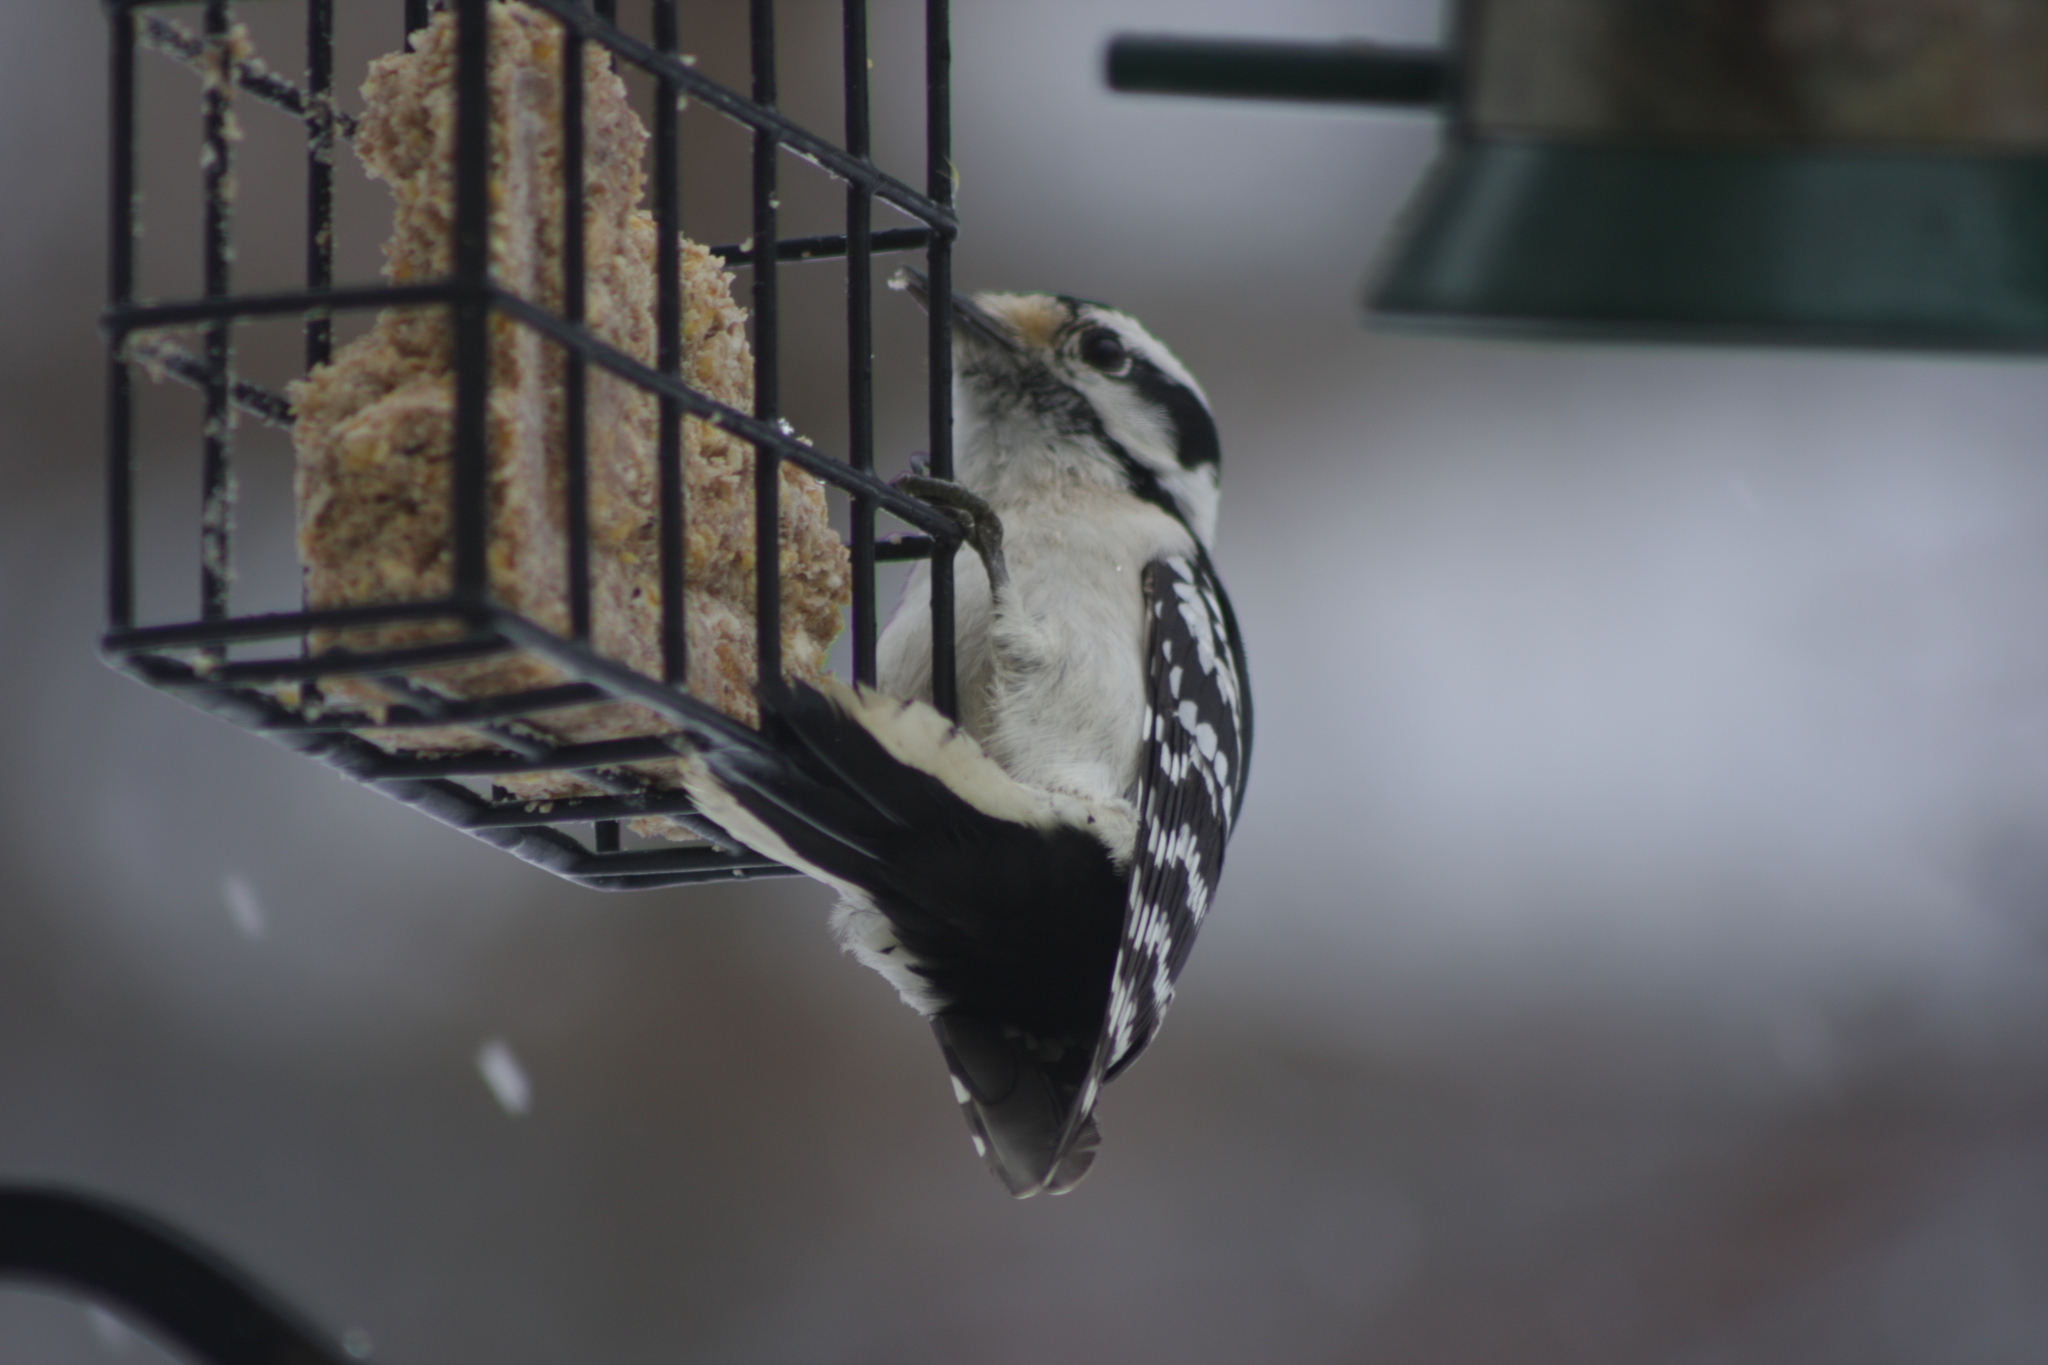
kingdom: Animalia
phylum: Chordata
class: Aves
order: Piciformes
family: Picidae
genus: Dryobates
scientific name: Dryobates pubescens
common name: Downy woodpecker
